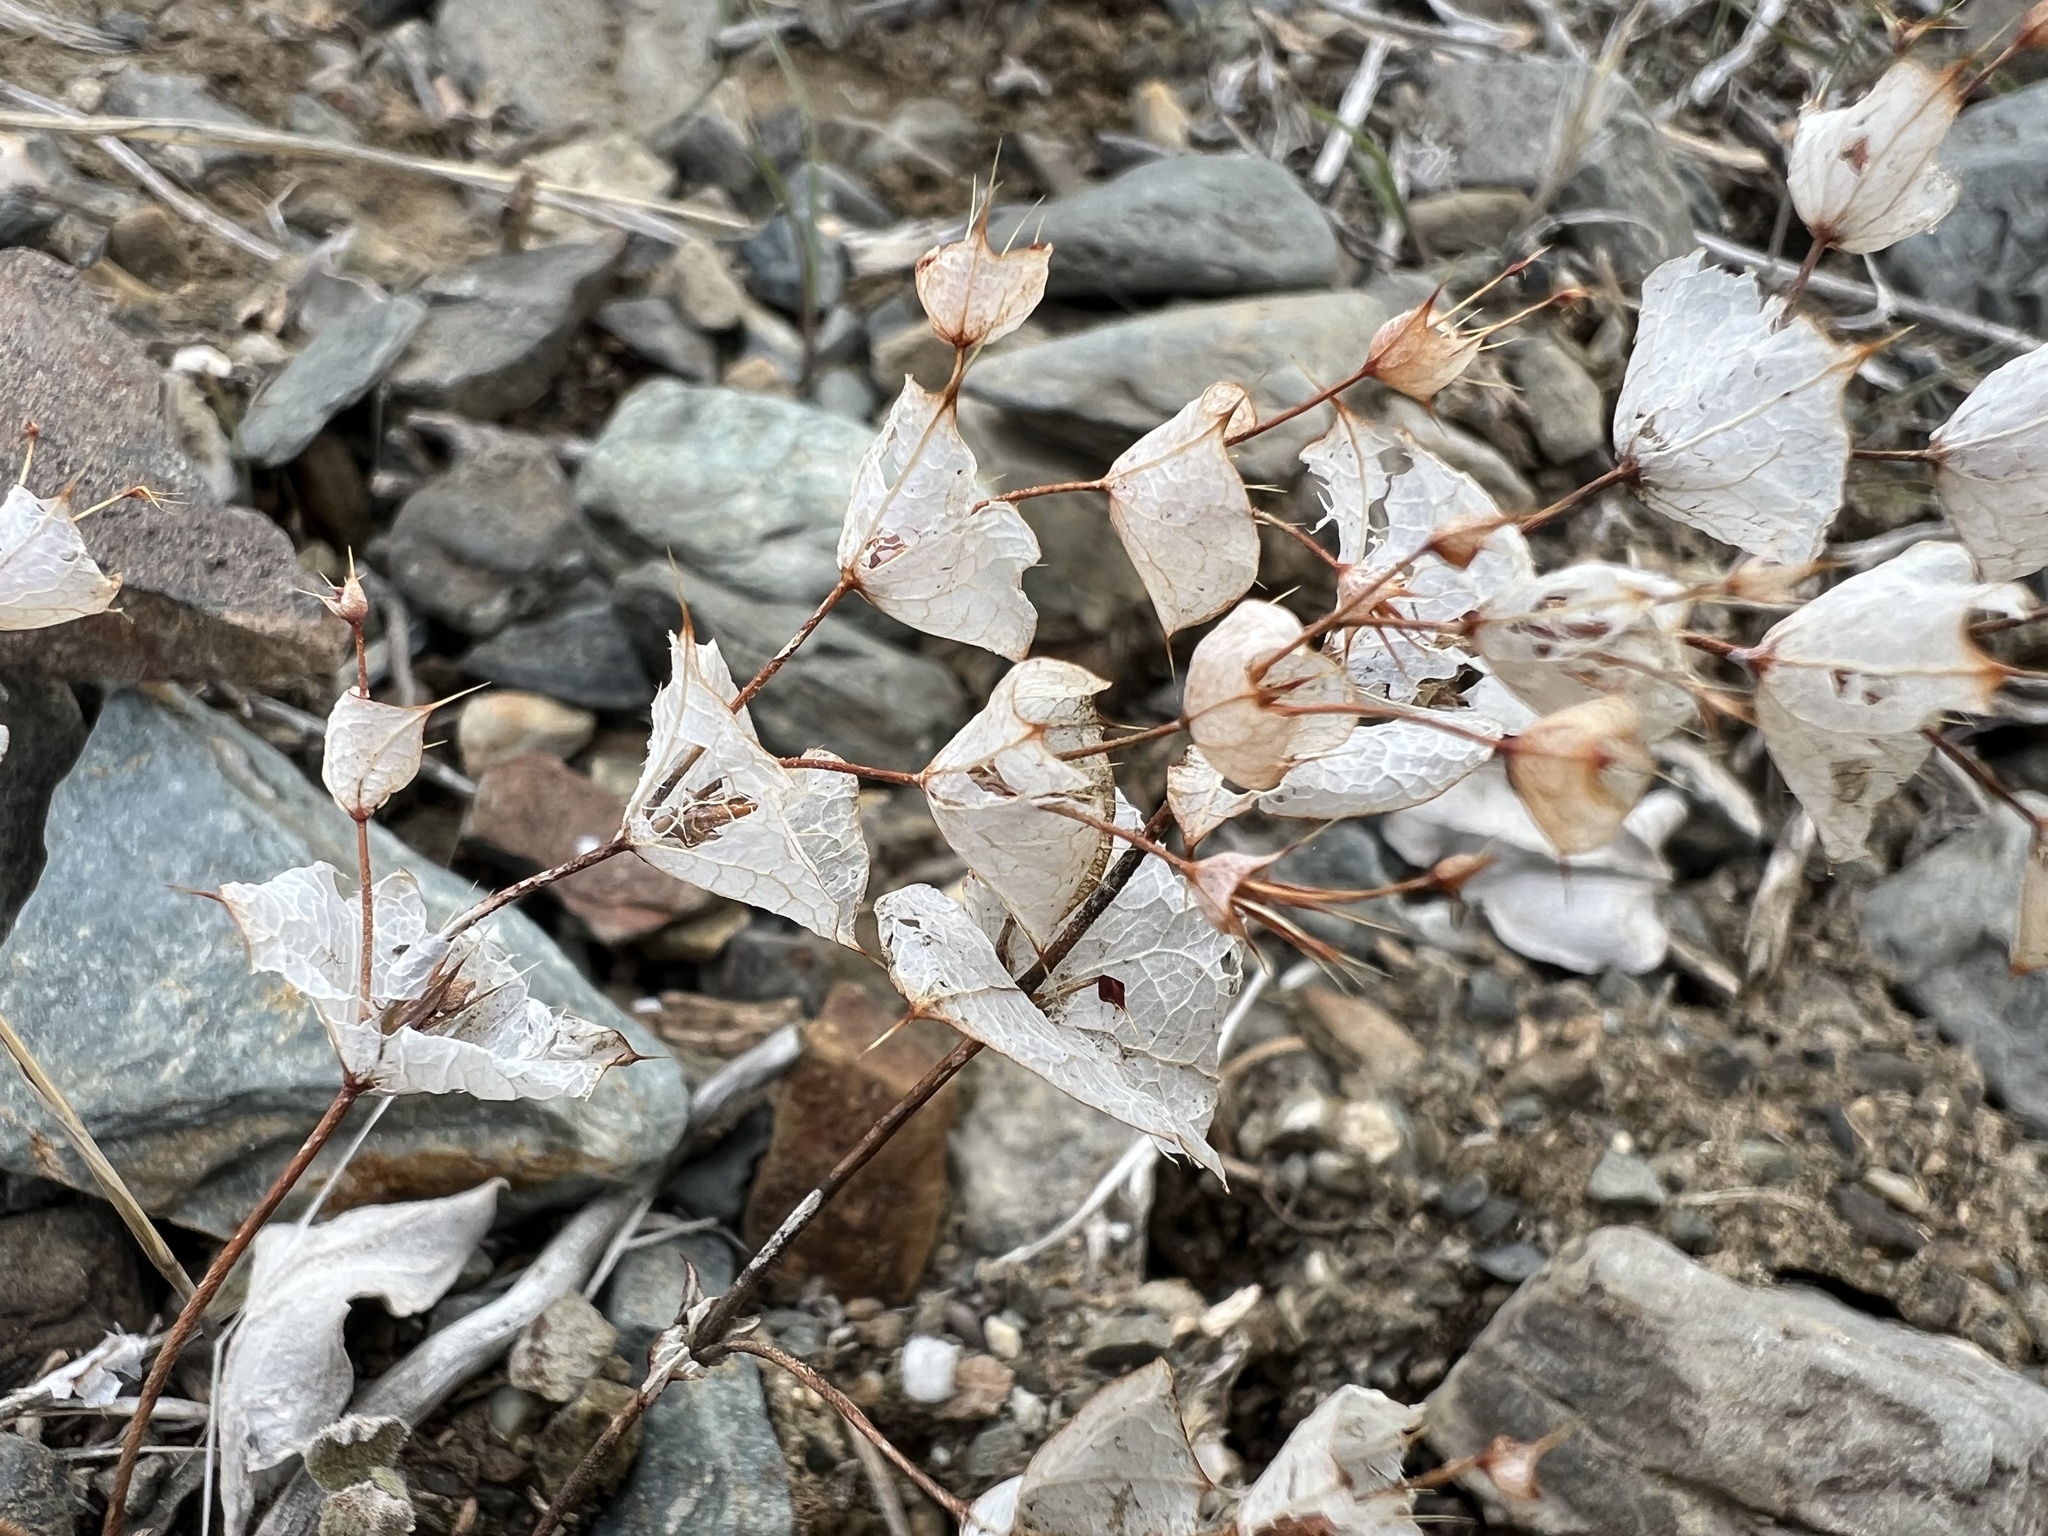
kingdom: Plantae
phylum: Tracheophyta
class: Magnoliopsida
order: Caryophyllales
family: Polygonaceae
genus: Oxytheca
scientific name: Oxytheca perfoliata
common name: Round-leaf puncturebract
